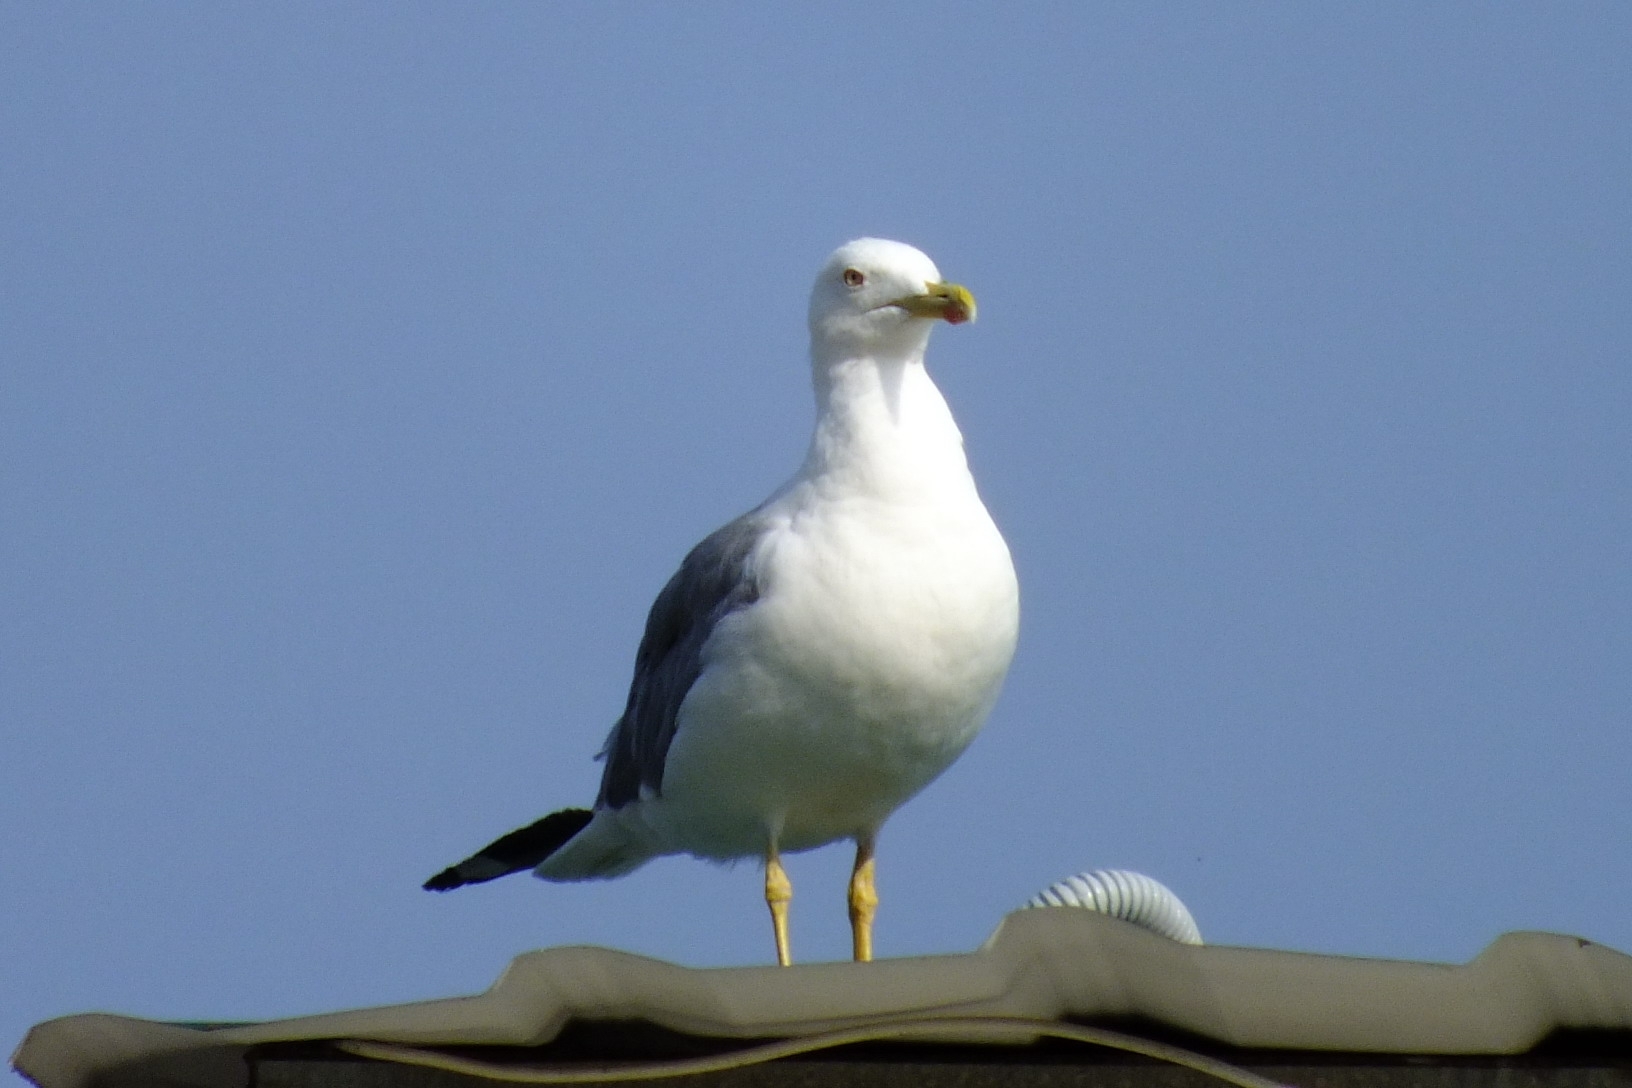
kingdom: Animalia
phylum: Chordata
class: Aves
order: Charadriiformes
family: Laridae
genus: Larus
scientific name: Larus michahellis
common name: Yellow-legged gull
